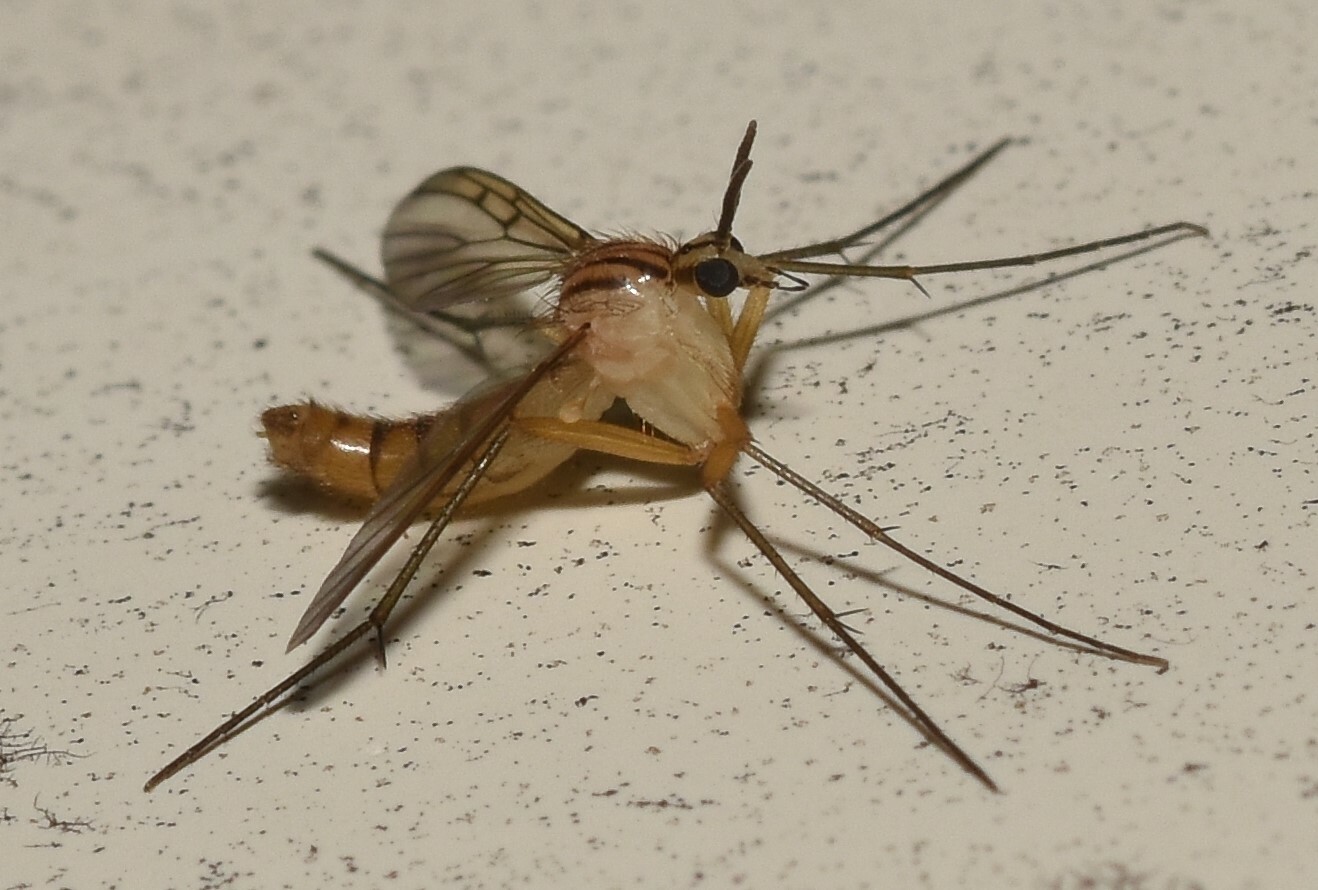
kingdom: Animalia
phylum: Arthropoda
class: Insecta
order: Diptera
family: Mycetophilidae
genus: Neoempheria
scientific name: Neoempheria balioptera
